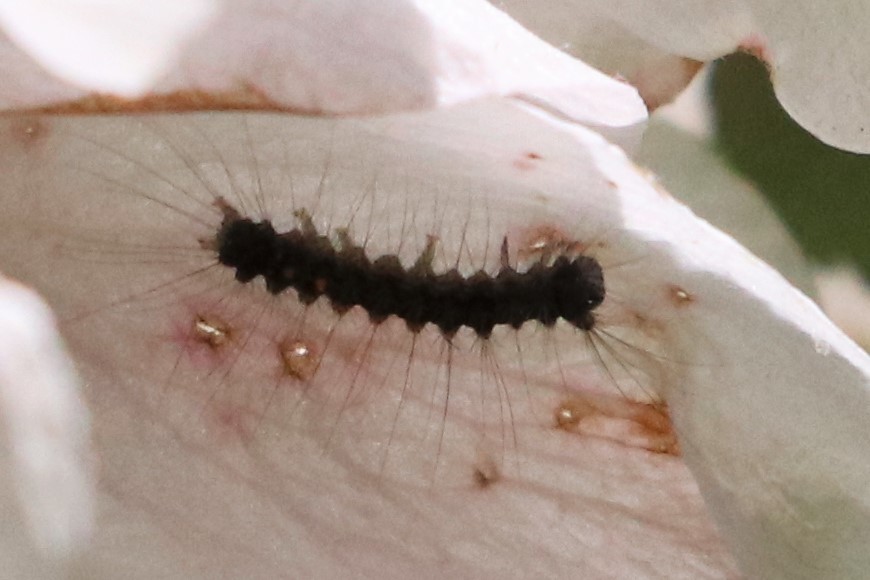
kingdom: Animalia
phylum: Arthropoda
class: Insecta
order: Lepidoptera
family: Erebidae
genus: Lymantria
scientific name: Lymantria dispar
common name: Gypsy moth
